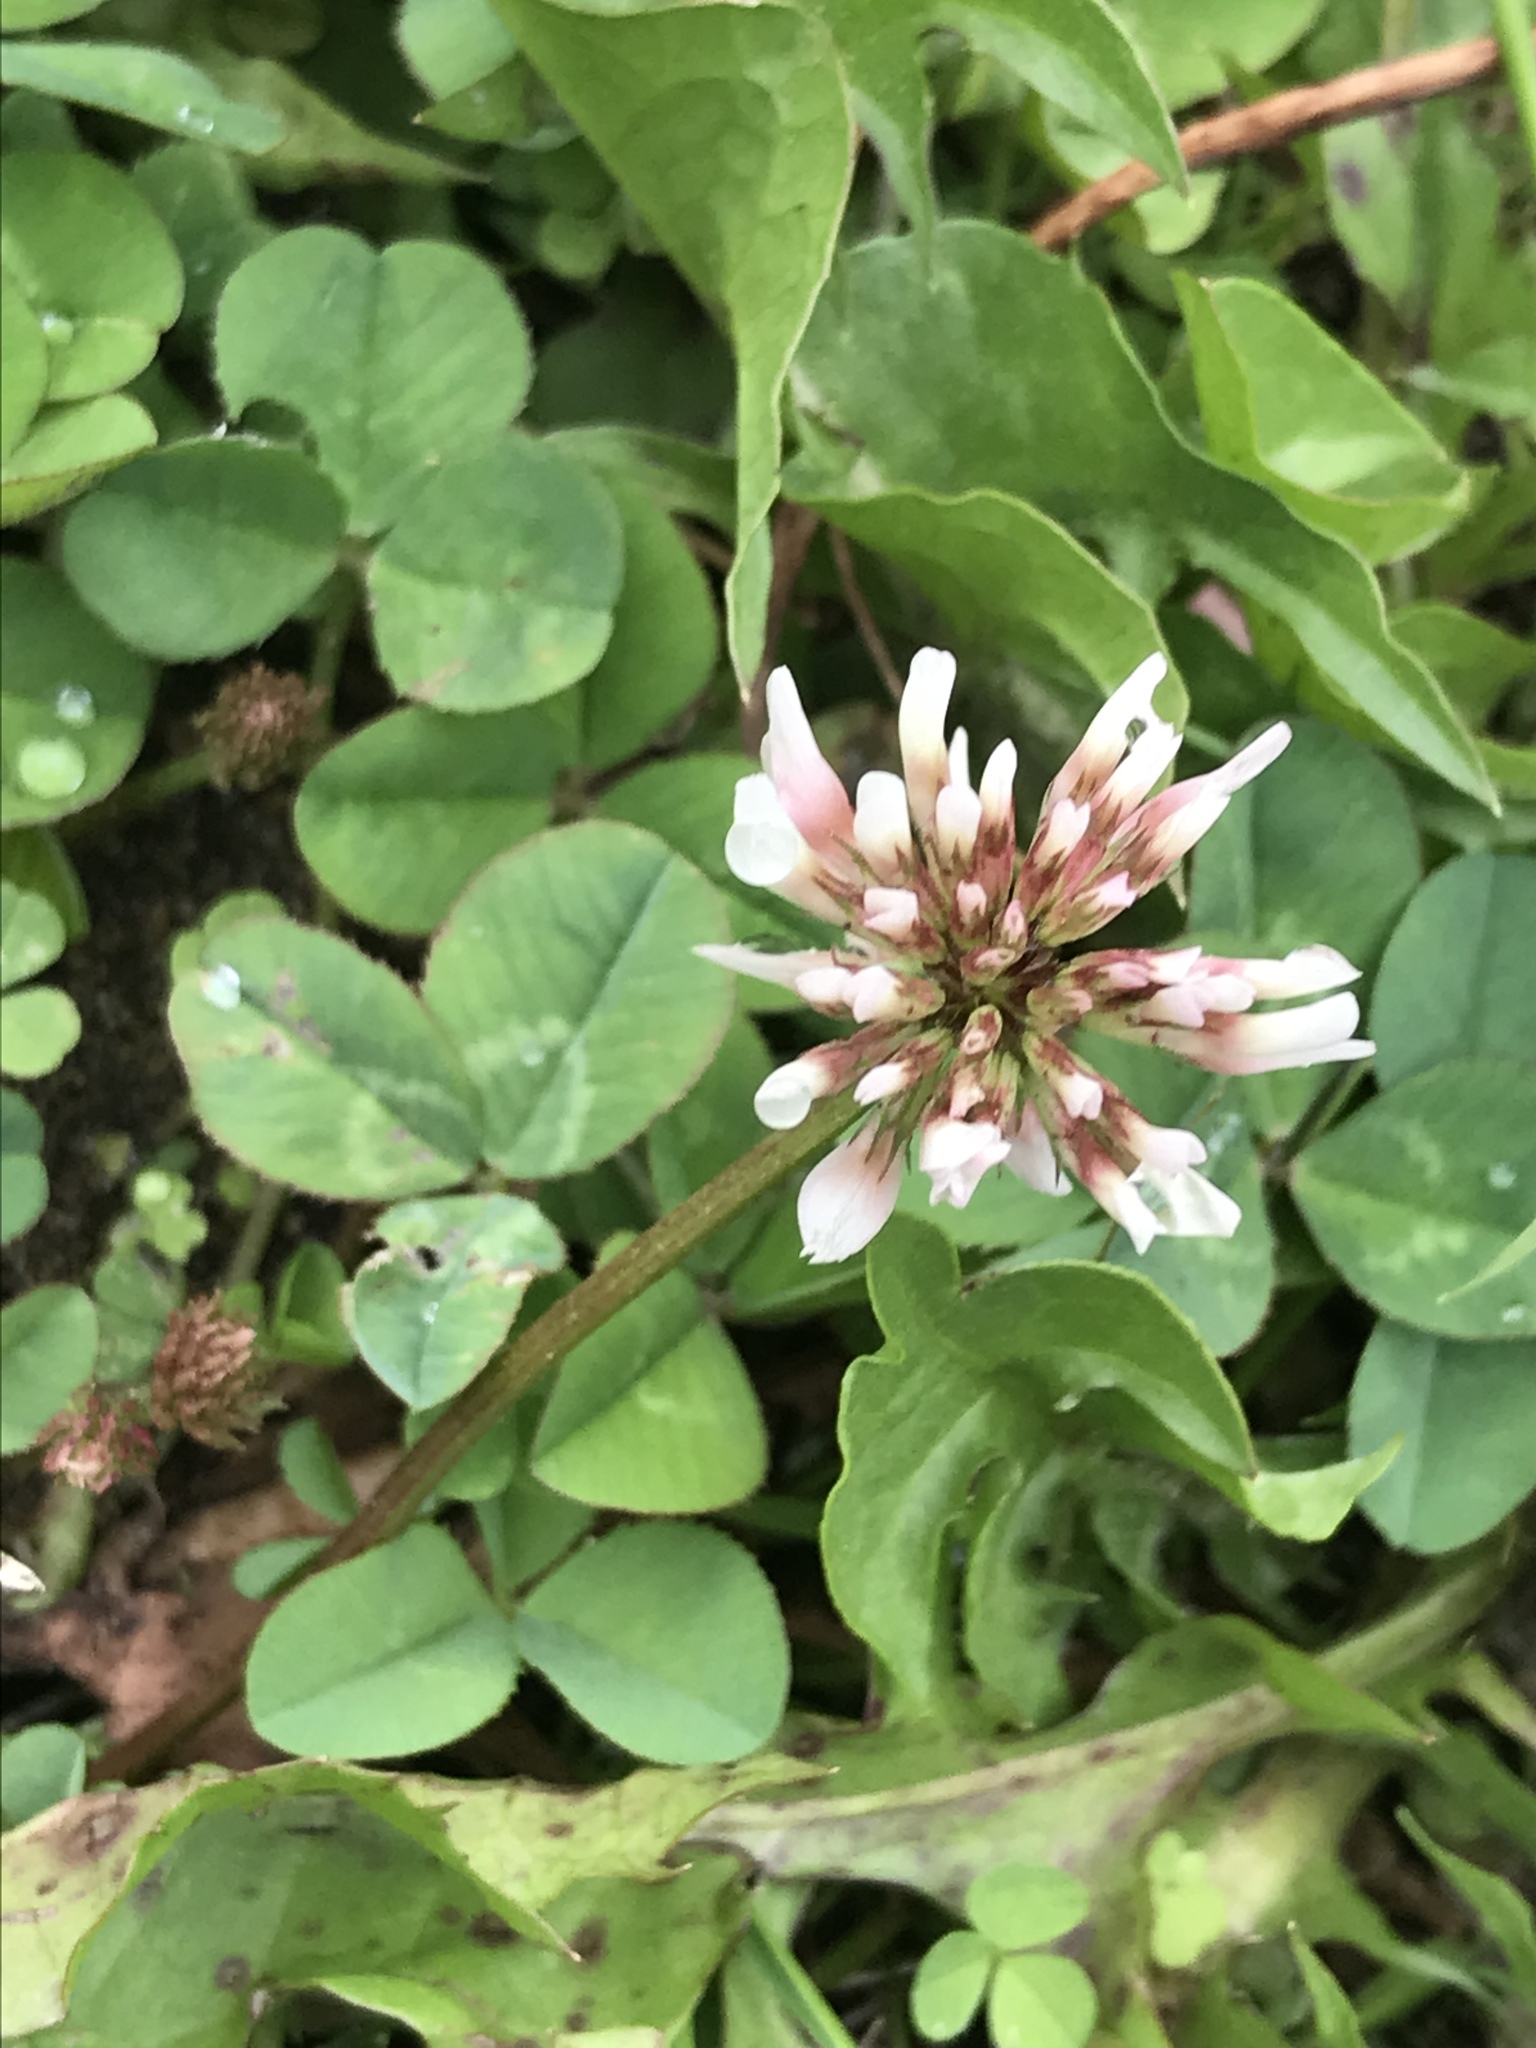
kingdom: Plantae
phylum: Tracheophyta
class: Magnoliopsida
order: Fabales
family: Fabaceae
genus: Trifolium
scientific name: Trifolium repens
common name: White clover
